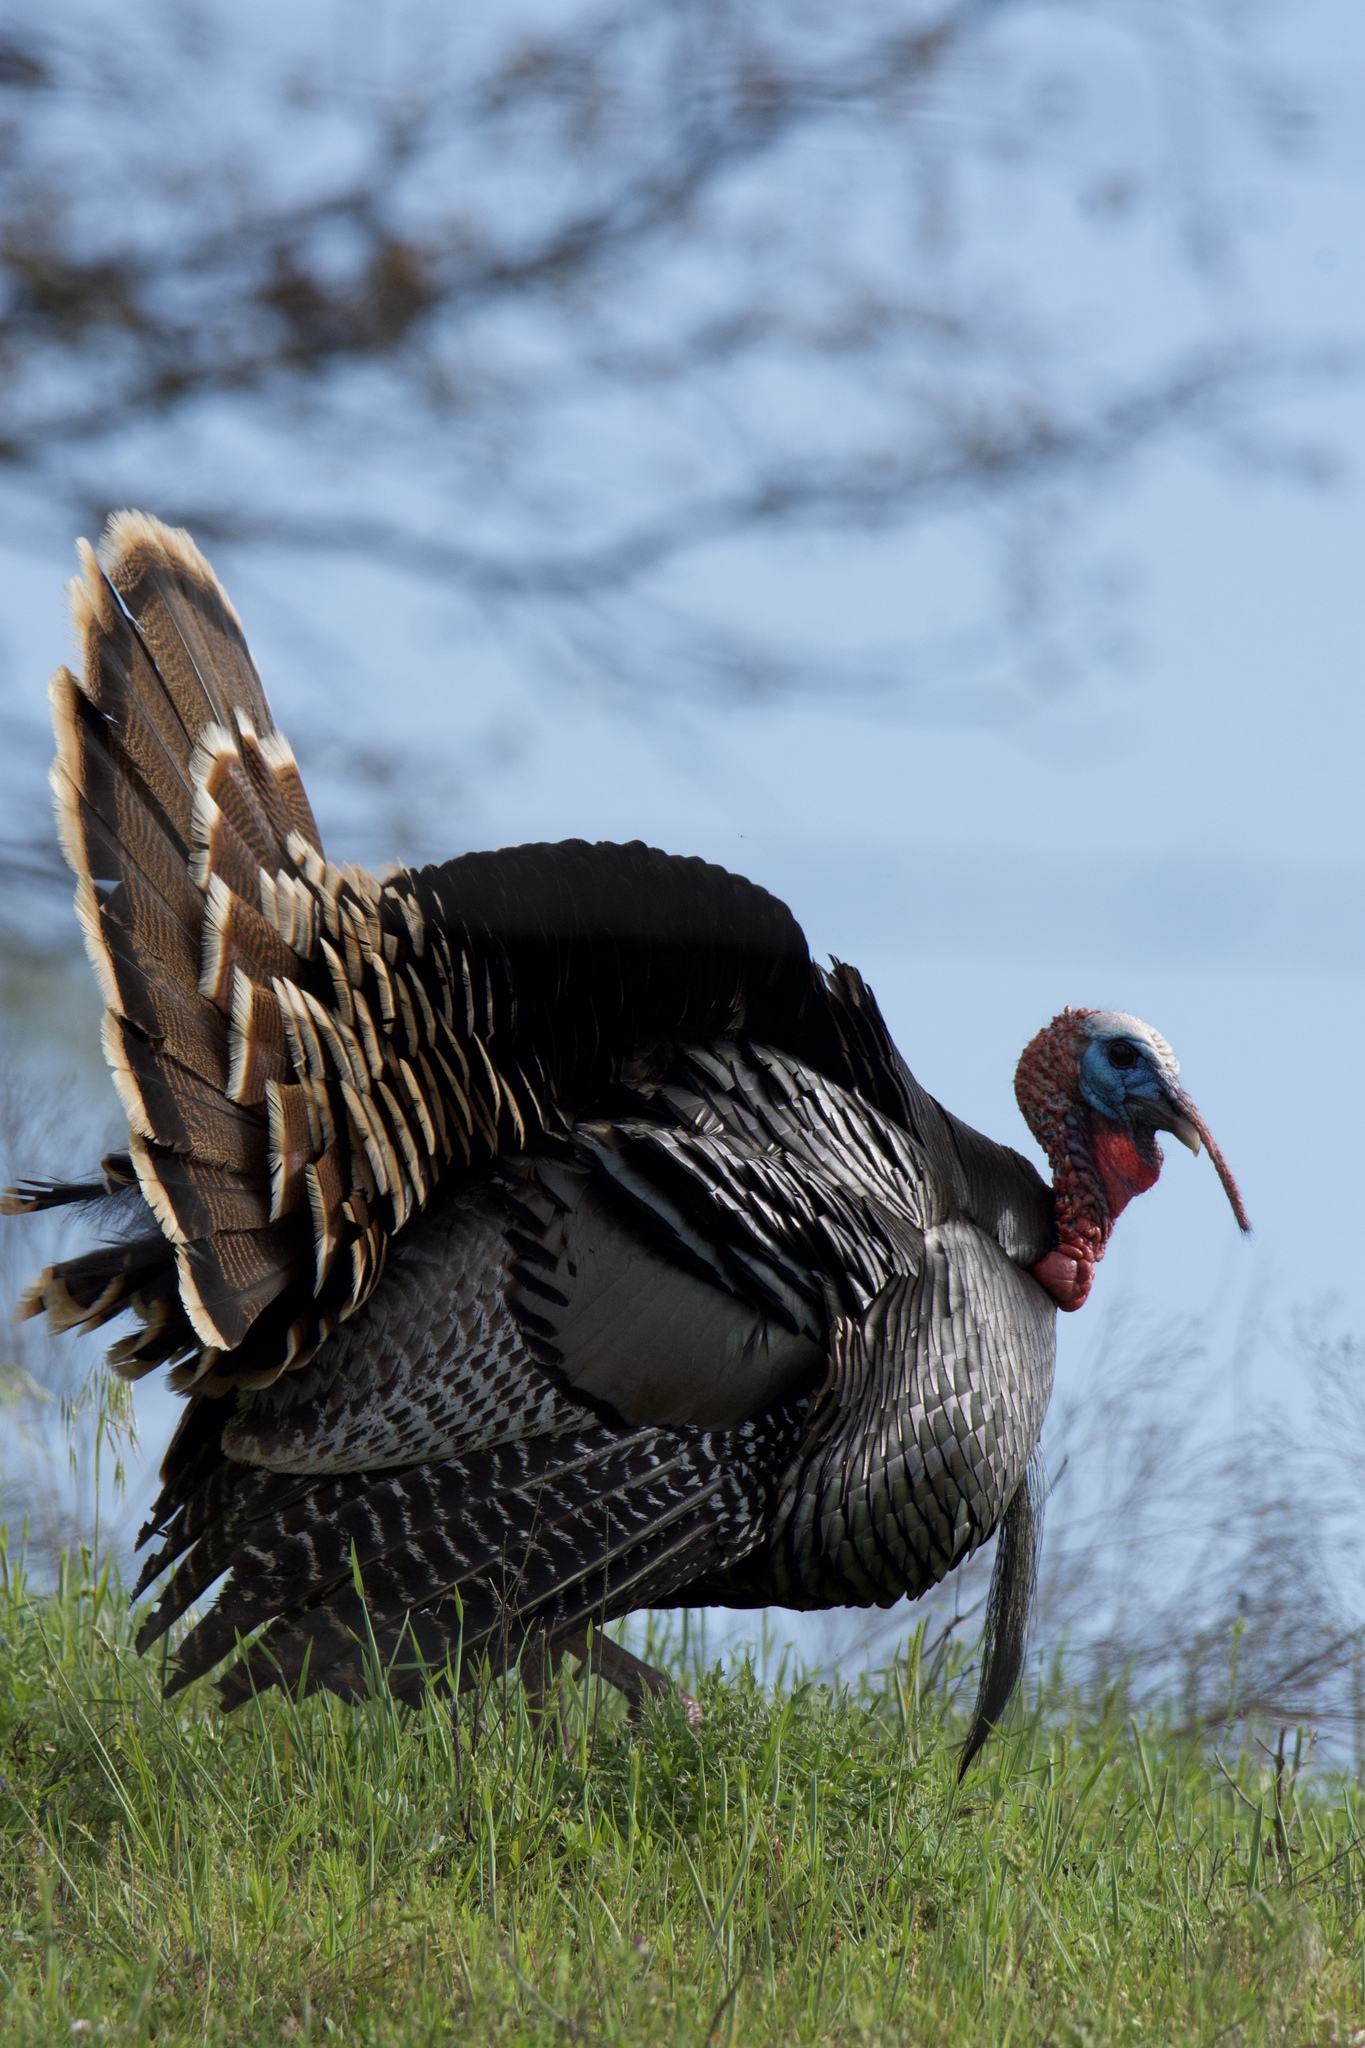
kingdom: Animalia
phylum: Chordata
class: Aves
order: Galliformes
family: Phasianidae
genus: Meleagris
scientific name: Meleagris gallopavo
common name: Wild turkey
